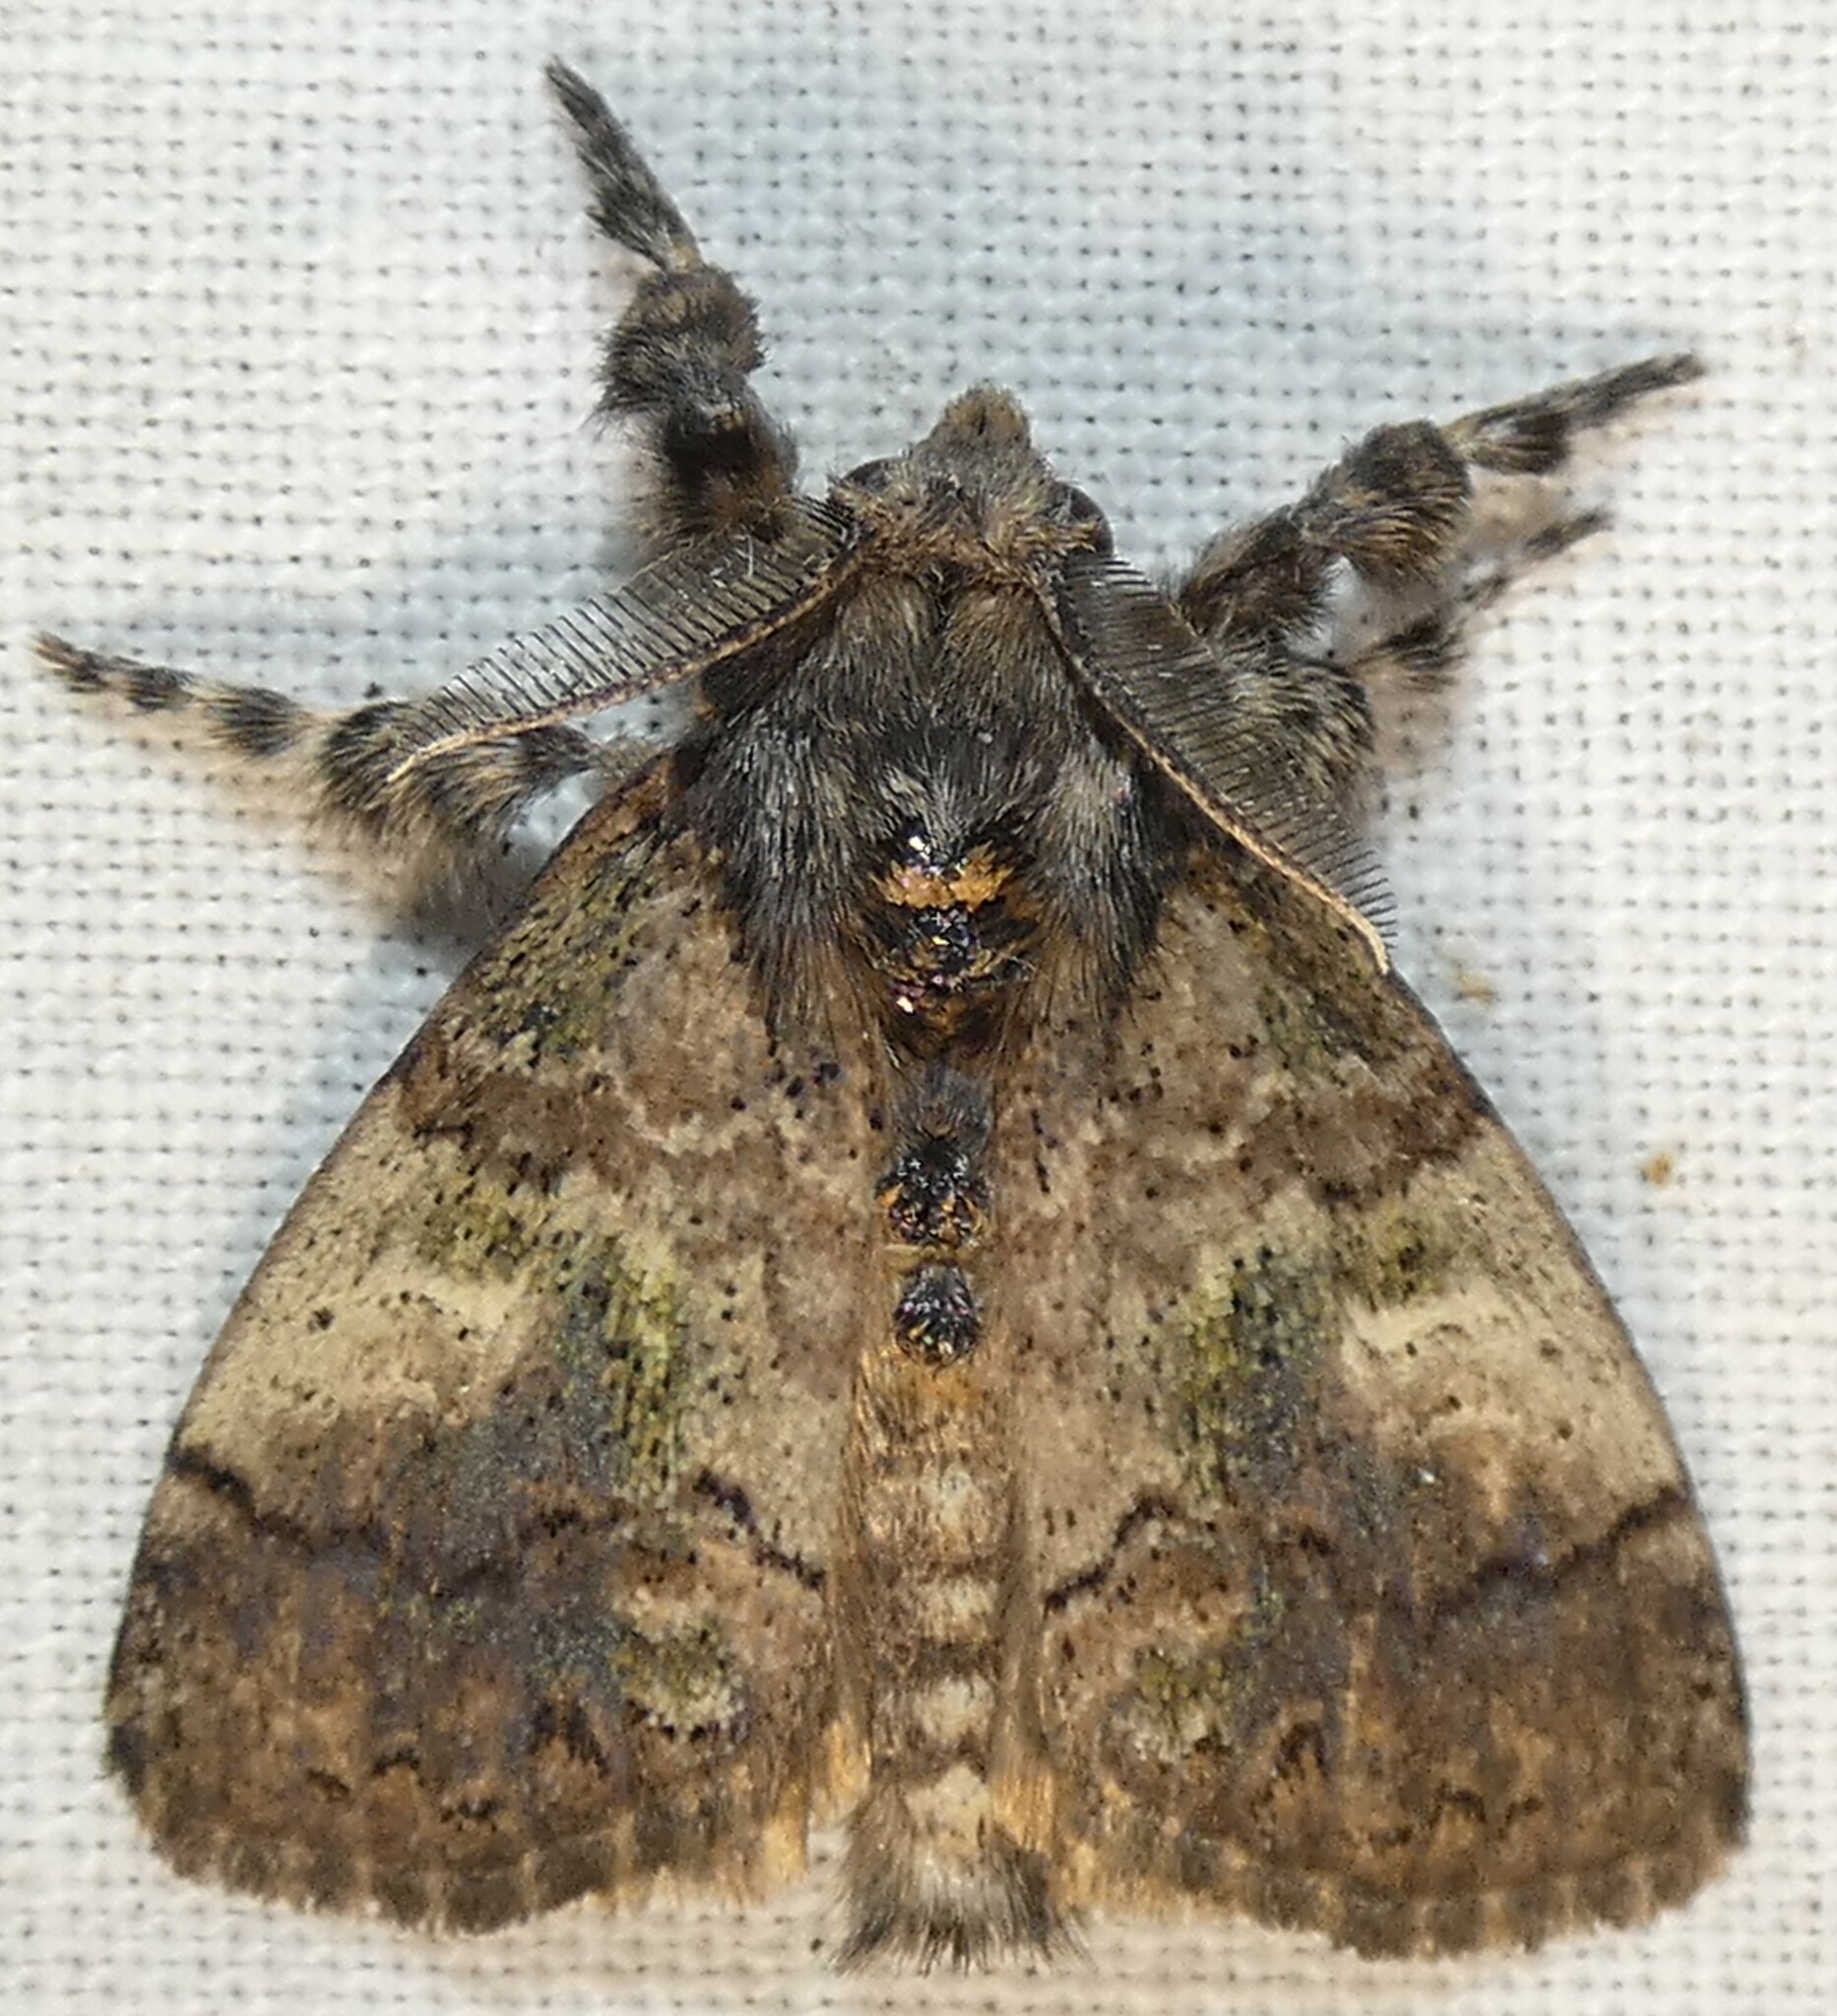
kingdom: Animalia
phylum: Arthropoda
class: Insecta
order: Lepidoptera
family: Erebidae
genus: Dasychira
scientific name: Dasychira meridionalis
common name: Southern tussock moth
